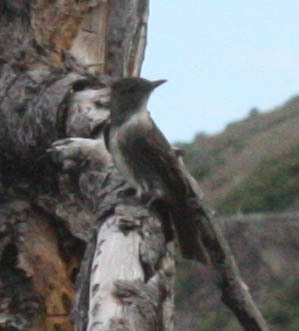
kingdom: Animalia
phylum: Chordata
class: Aves
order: Passeriformes
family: Tyrannidae
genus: Contopus
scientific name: Contopus cooperi
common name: Olive-sided flycatcher
